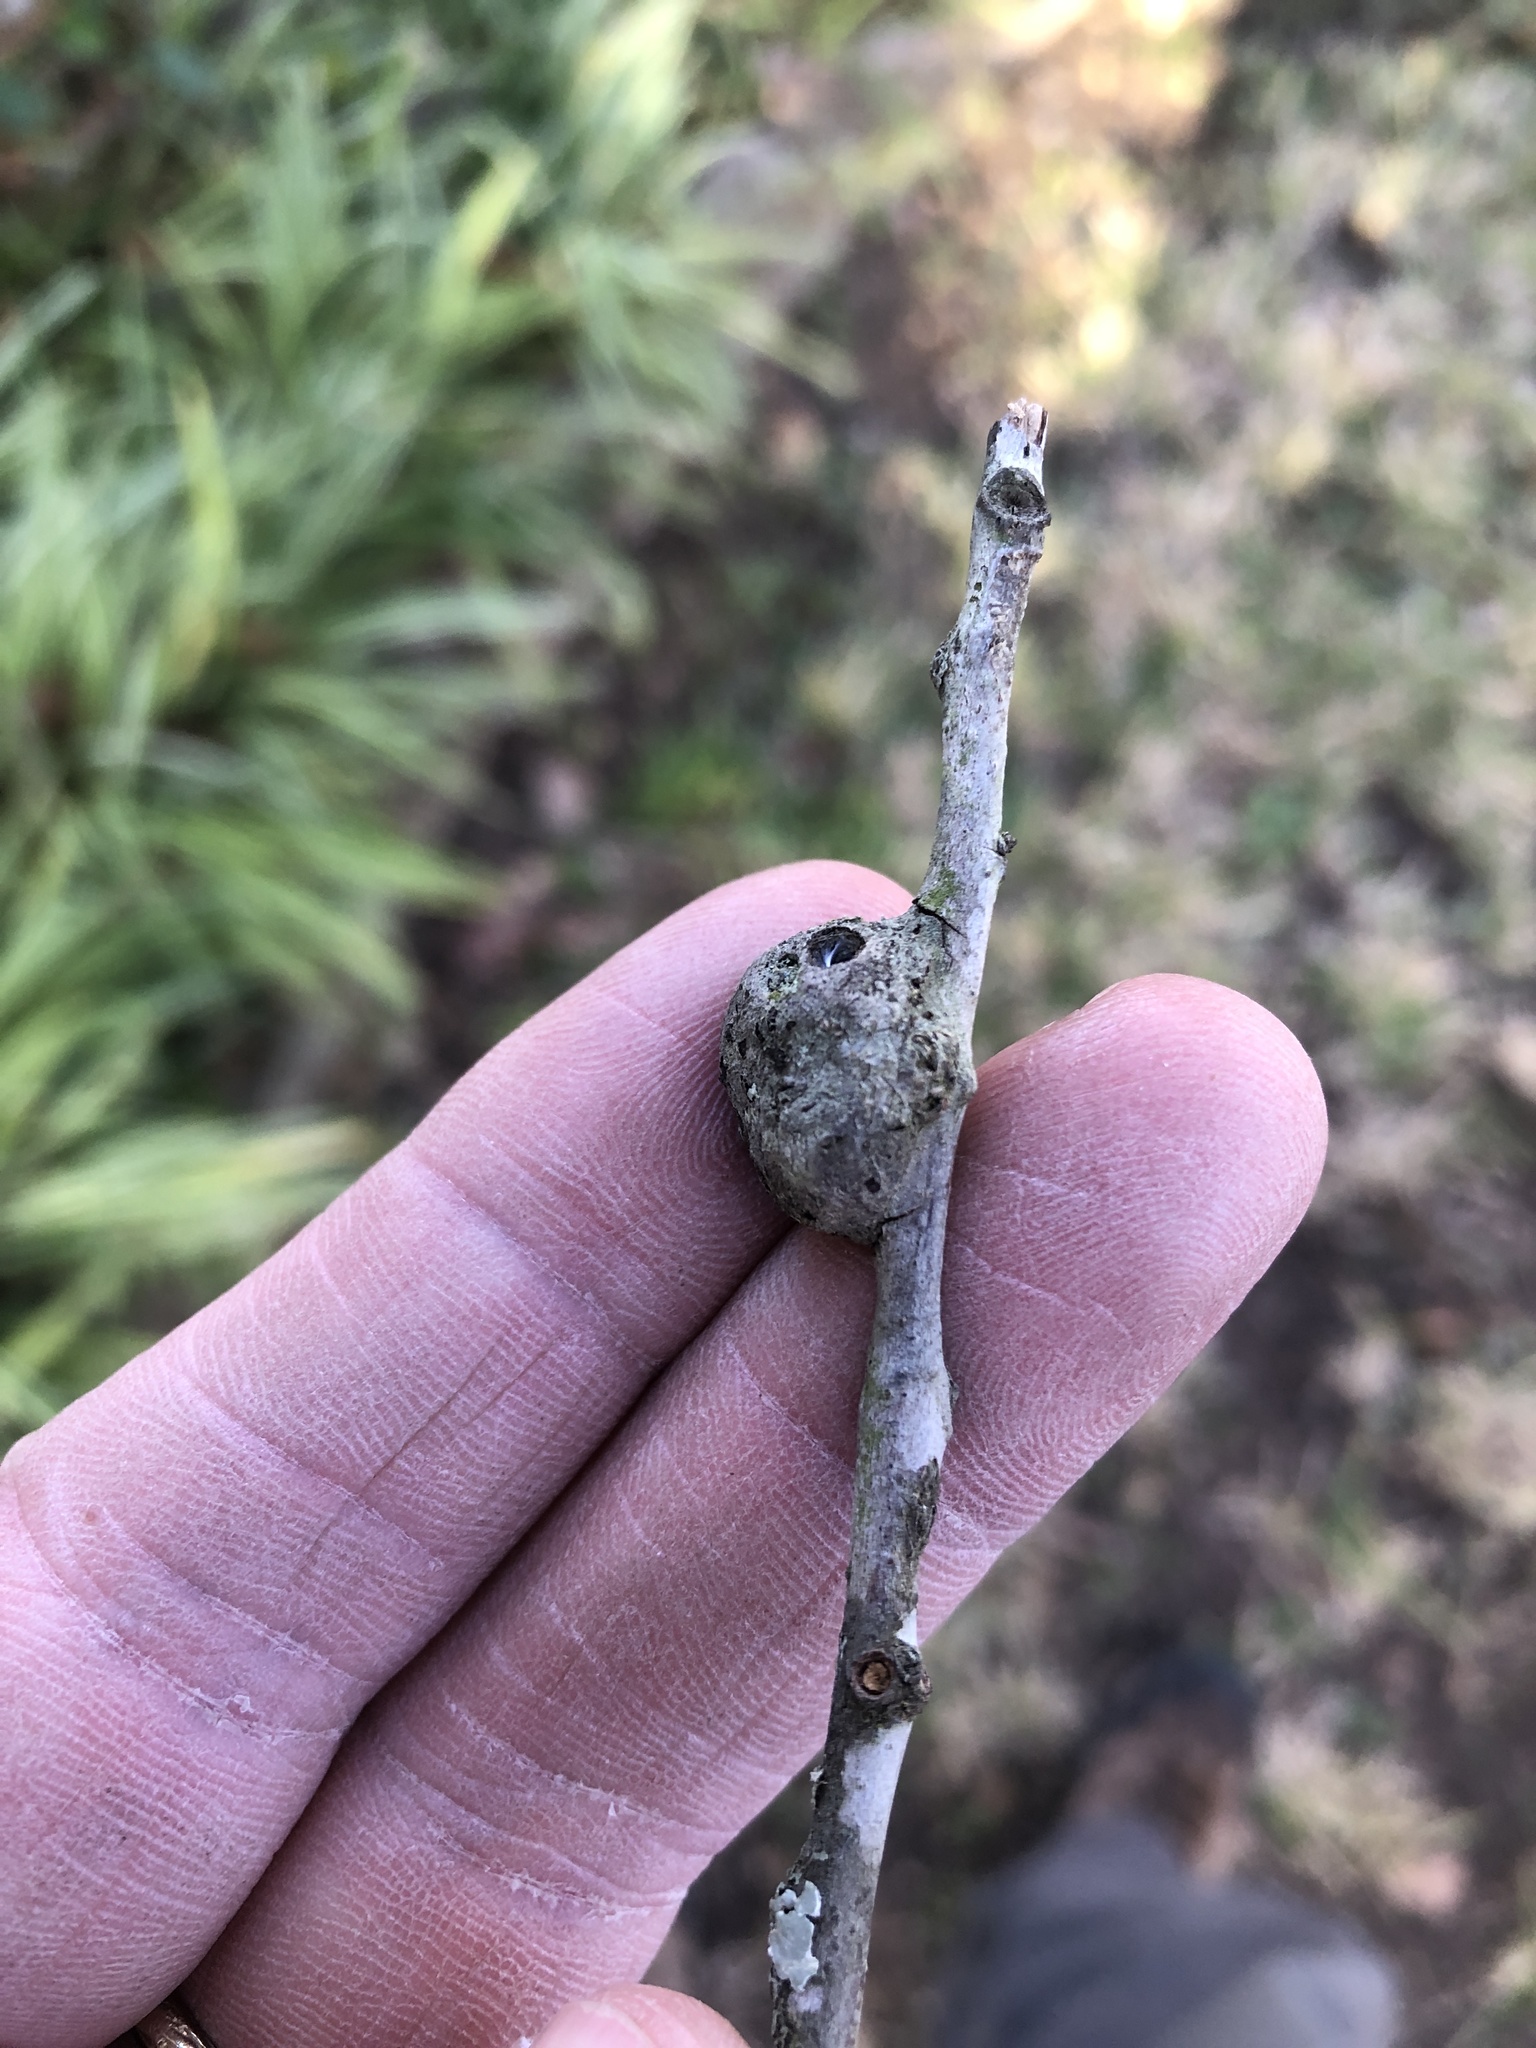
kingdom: Animalia
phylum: Arthropoda
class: Insecta
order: Hymenoptera
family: Cynipidae
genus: Callirhytis
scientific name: Callirhytis
